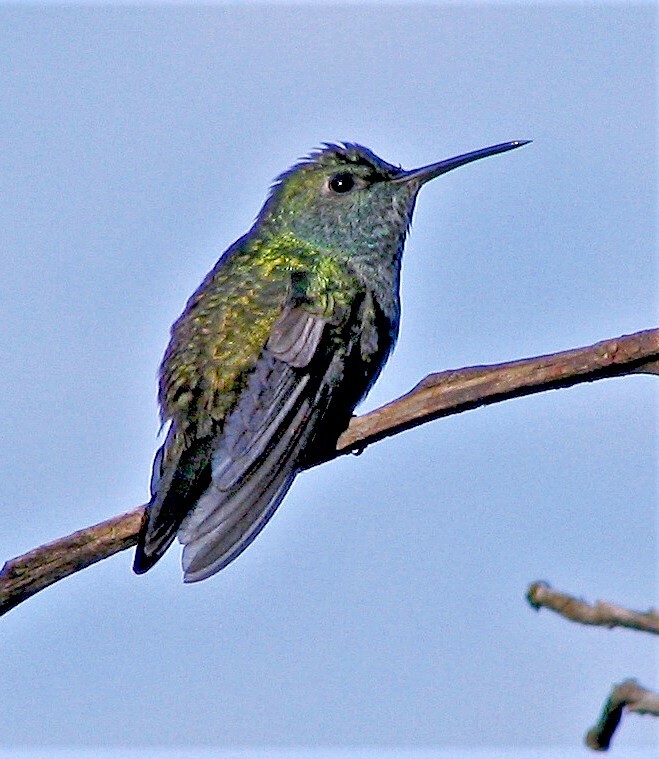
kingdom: Animalia
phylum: Chordata
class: Aves
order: Apodiformes
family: Trochilidae
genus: Chrysuronia
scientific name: Chrysuronia versicolor
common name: Versicolored emerald
